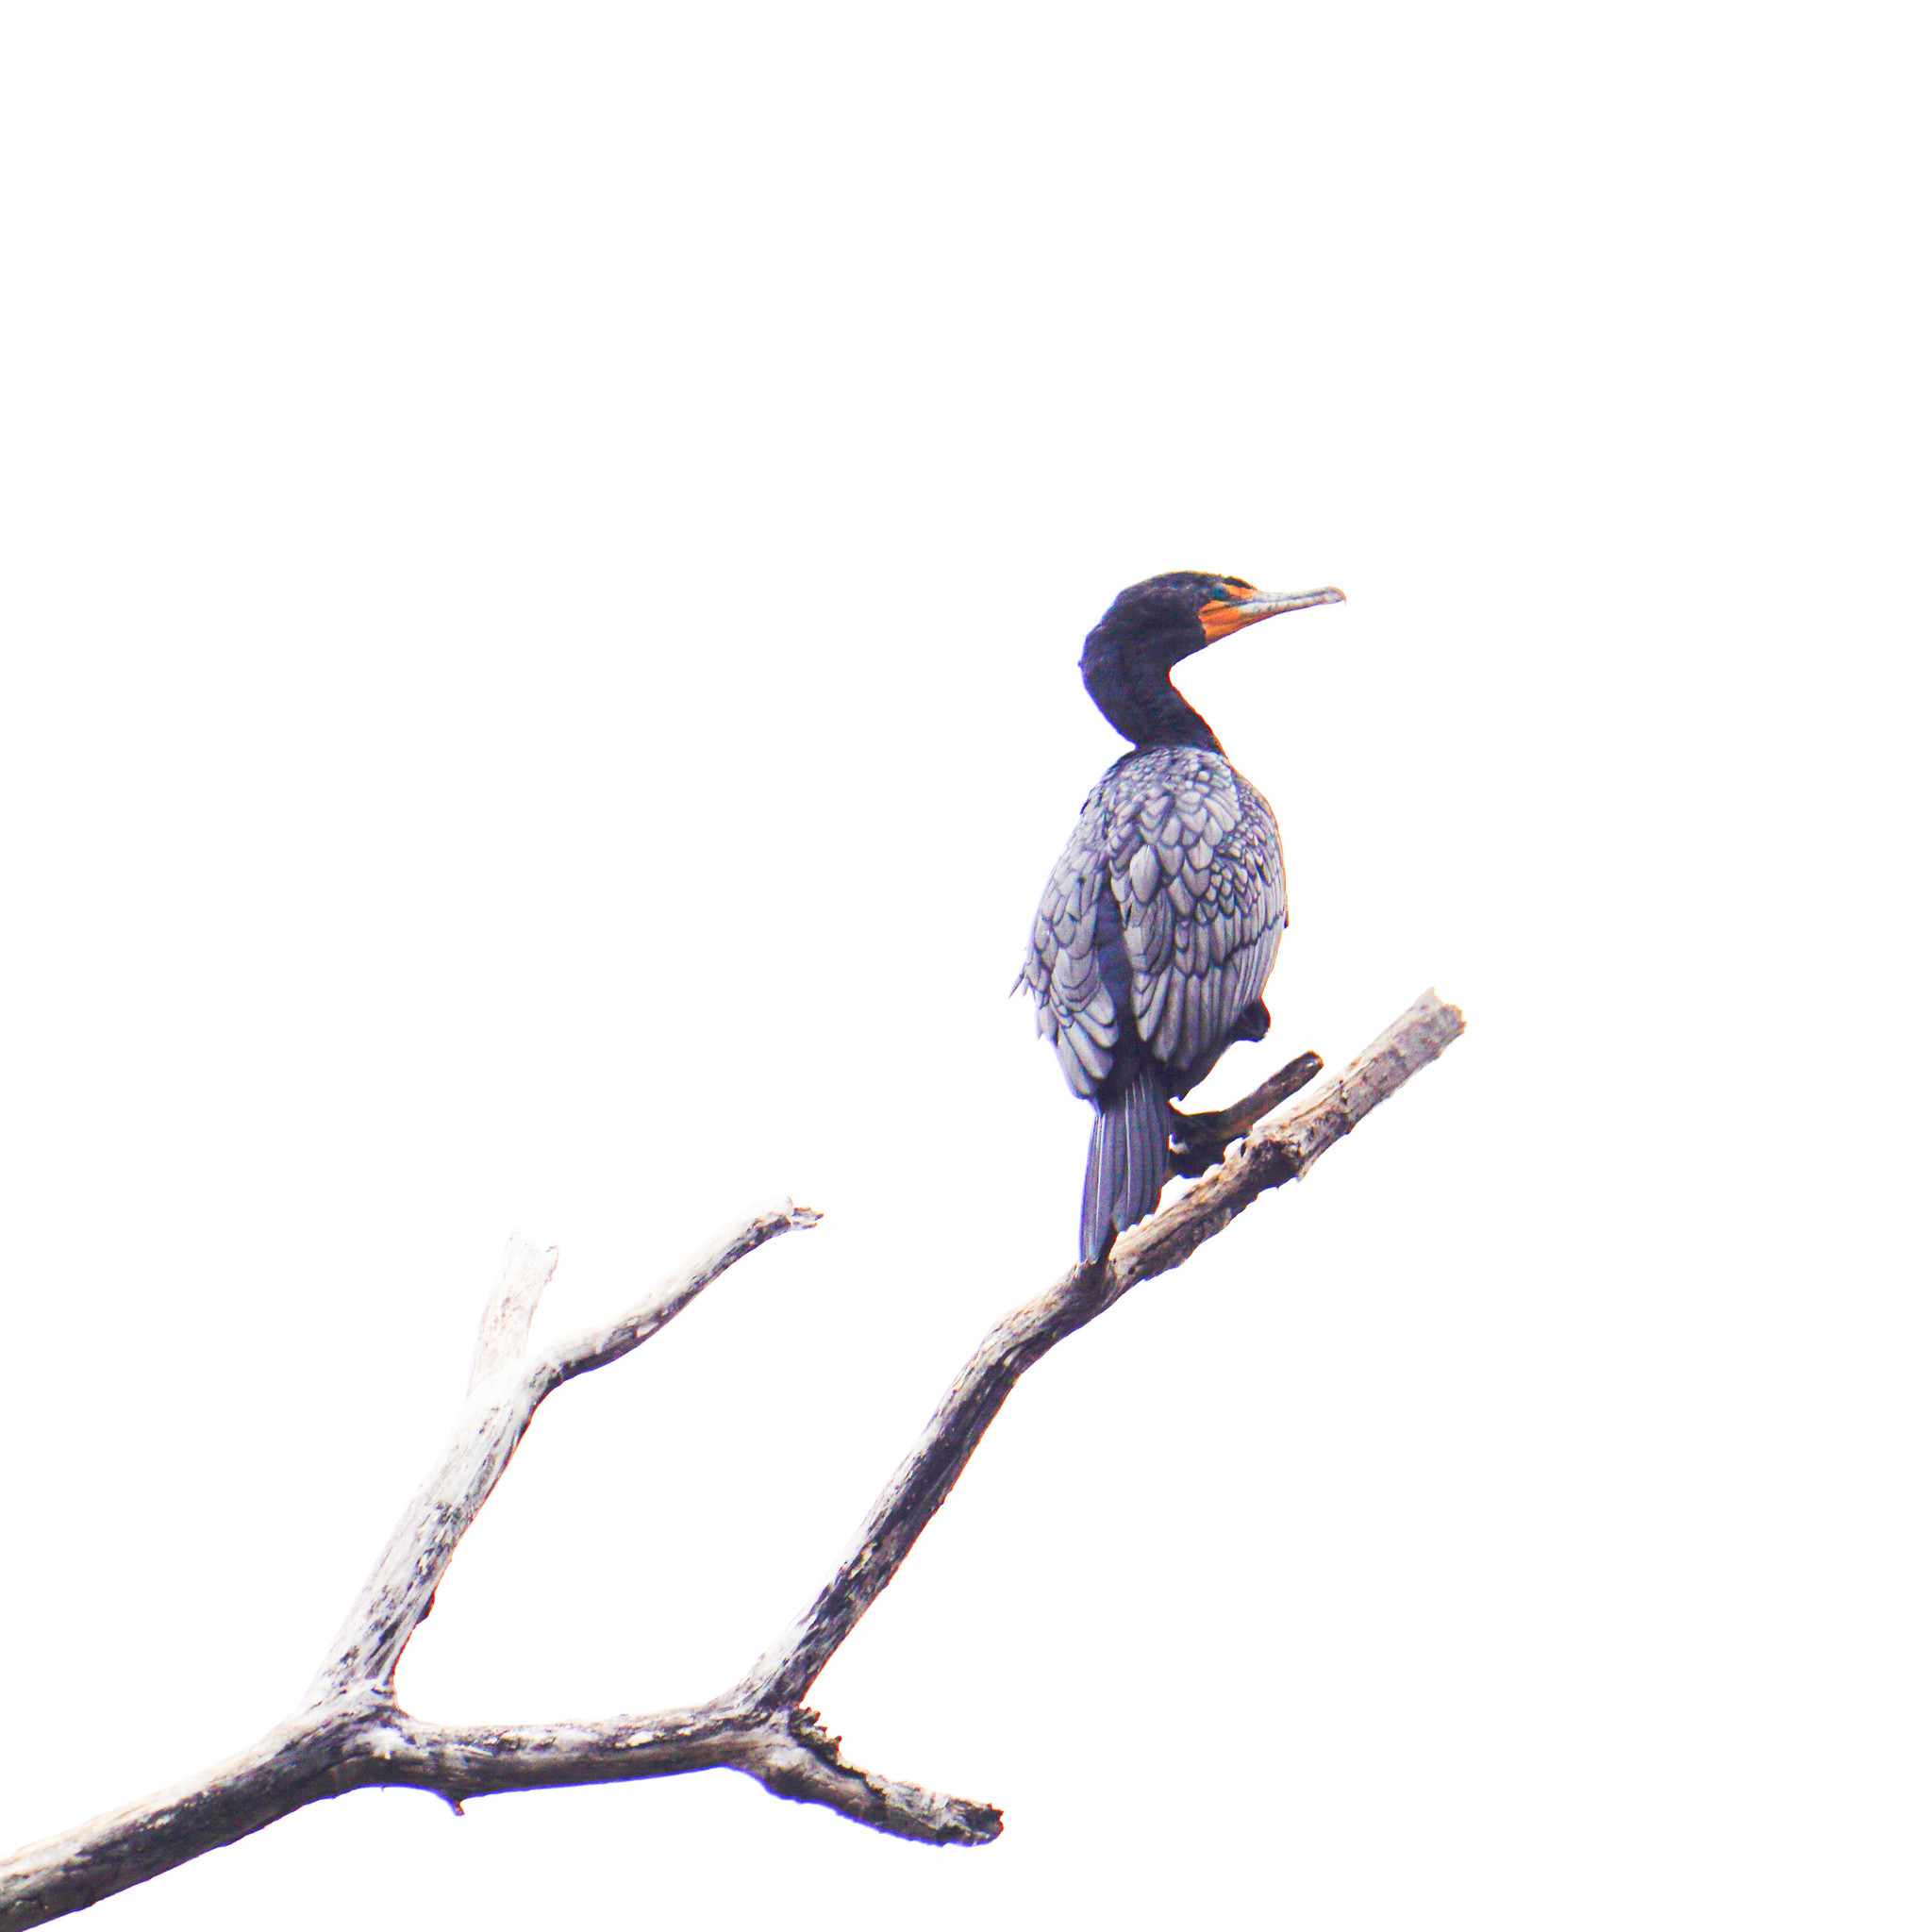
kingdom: Animalia
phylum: Chordata
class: Aves
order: Suliformes
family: Phalacrocoracidae
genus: Phalacrocorax
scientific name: Phalacrocorax auritus
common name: Double-crested cormorant
